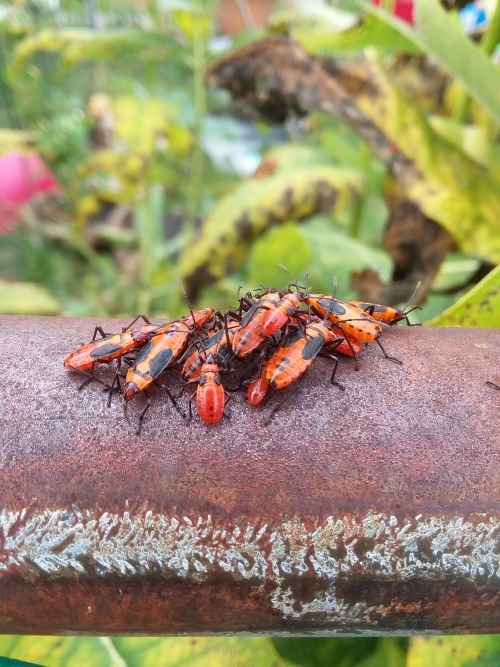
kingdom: Animalia
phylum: Arthropoda
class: Insecta
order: Hemiptera
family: Lygaeidae
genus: Oncopeltus
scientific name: Oncopeltus fasciatus
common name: Large milkweed bug
